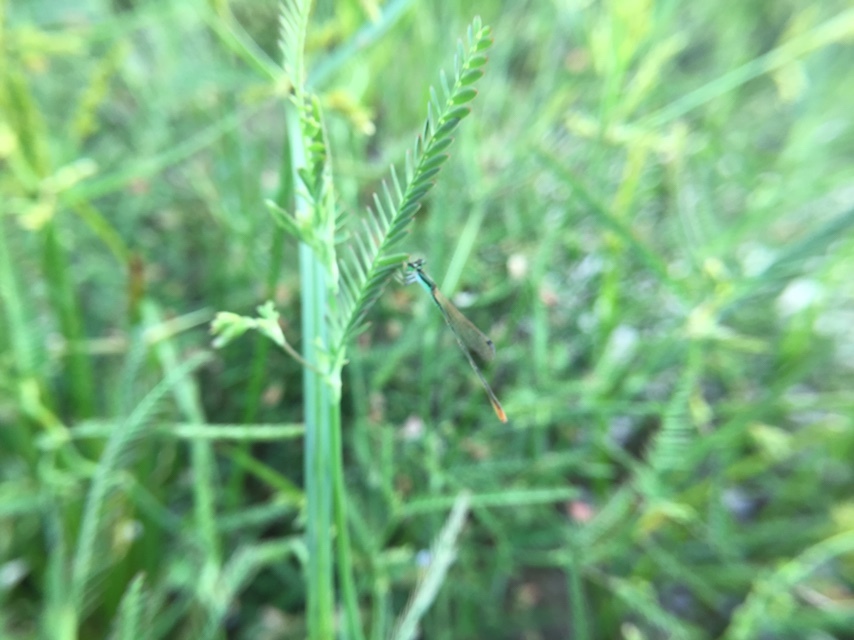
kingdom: Animalia
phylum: Arthropoda
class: Insecta
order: Odonata
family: Coenagrionidae
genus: Agriocnemis
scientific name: Agriocnemis pygmaea
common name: Pygmy wisp
